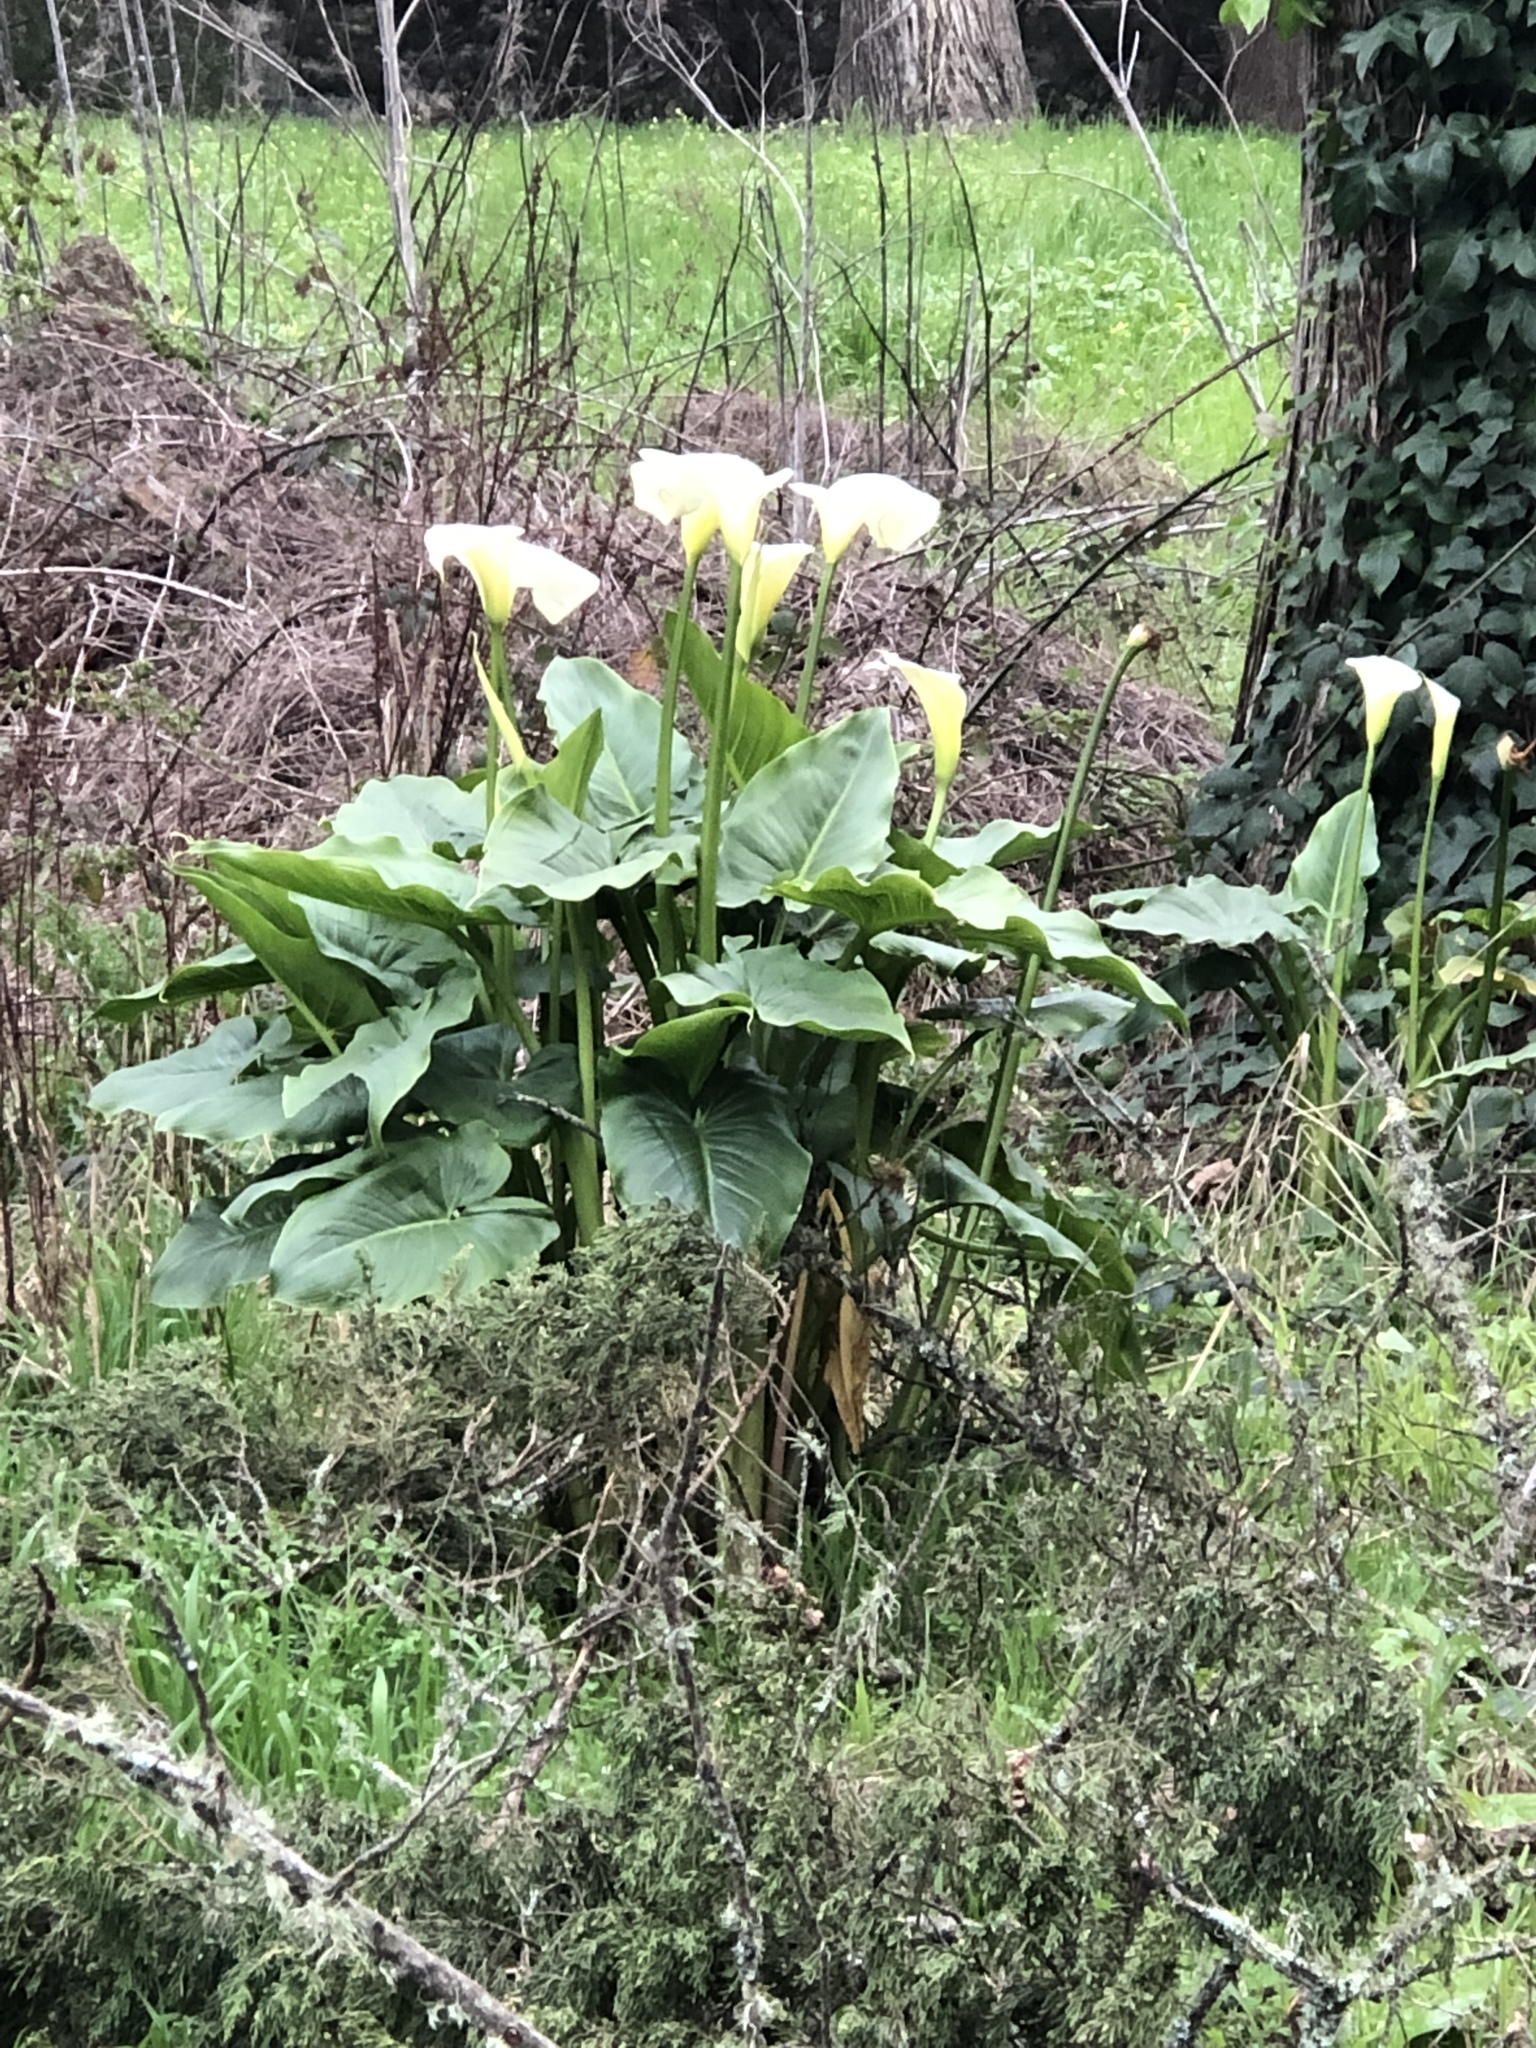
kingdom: Plantae
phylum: Tracheophyta
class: Liliopsida
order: Alismatales
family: Araceae
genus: Zantedeschia
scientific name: Zantedeschia aethiopica
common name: Altar-lily
